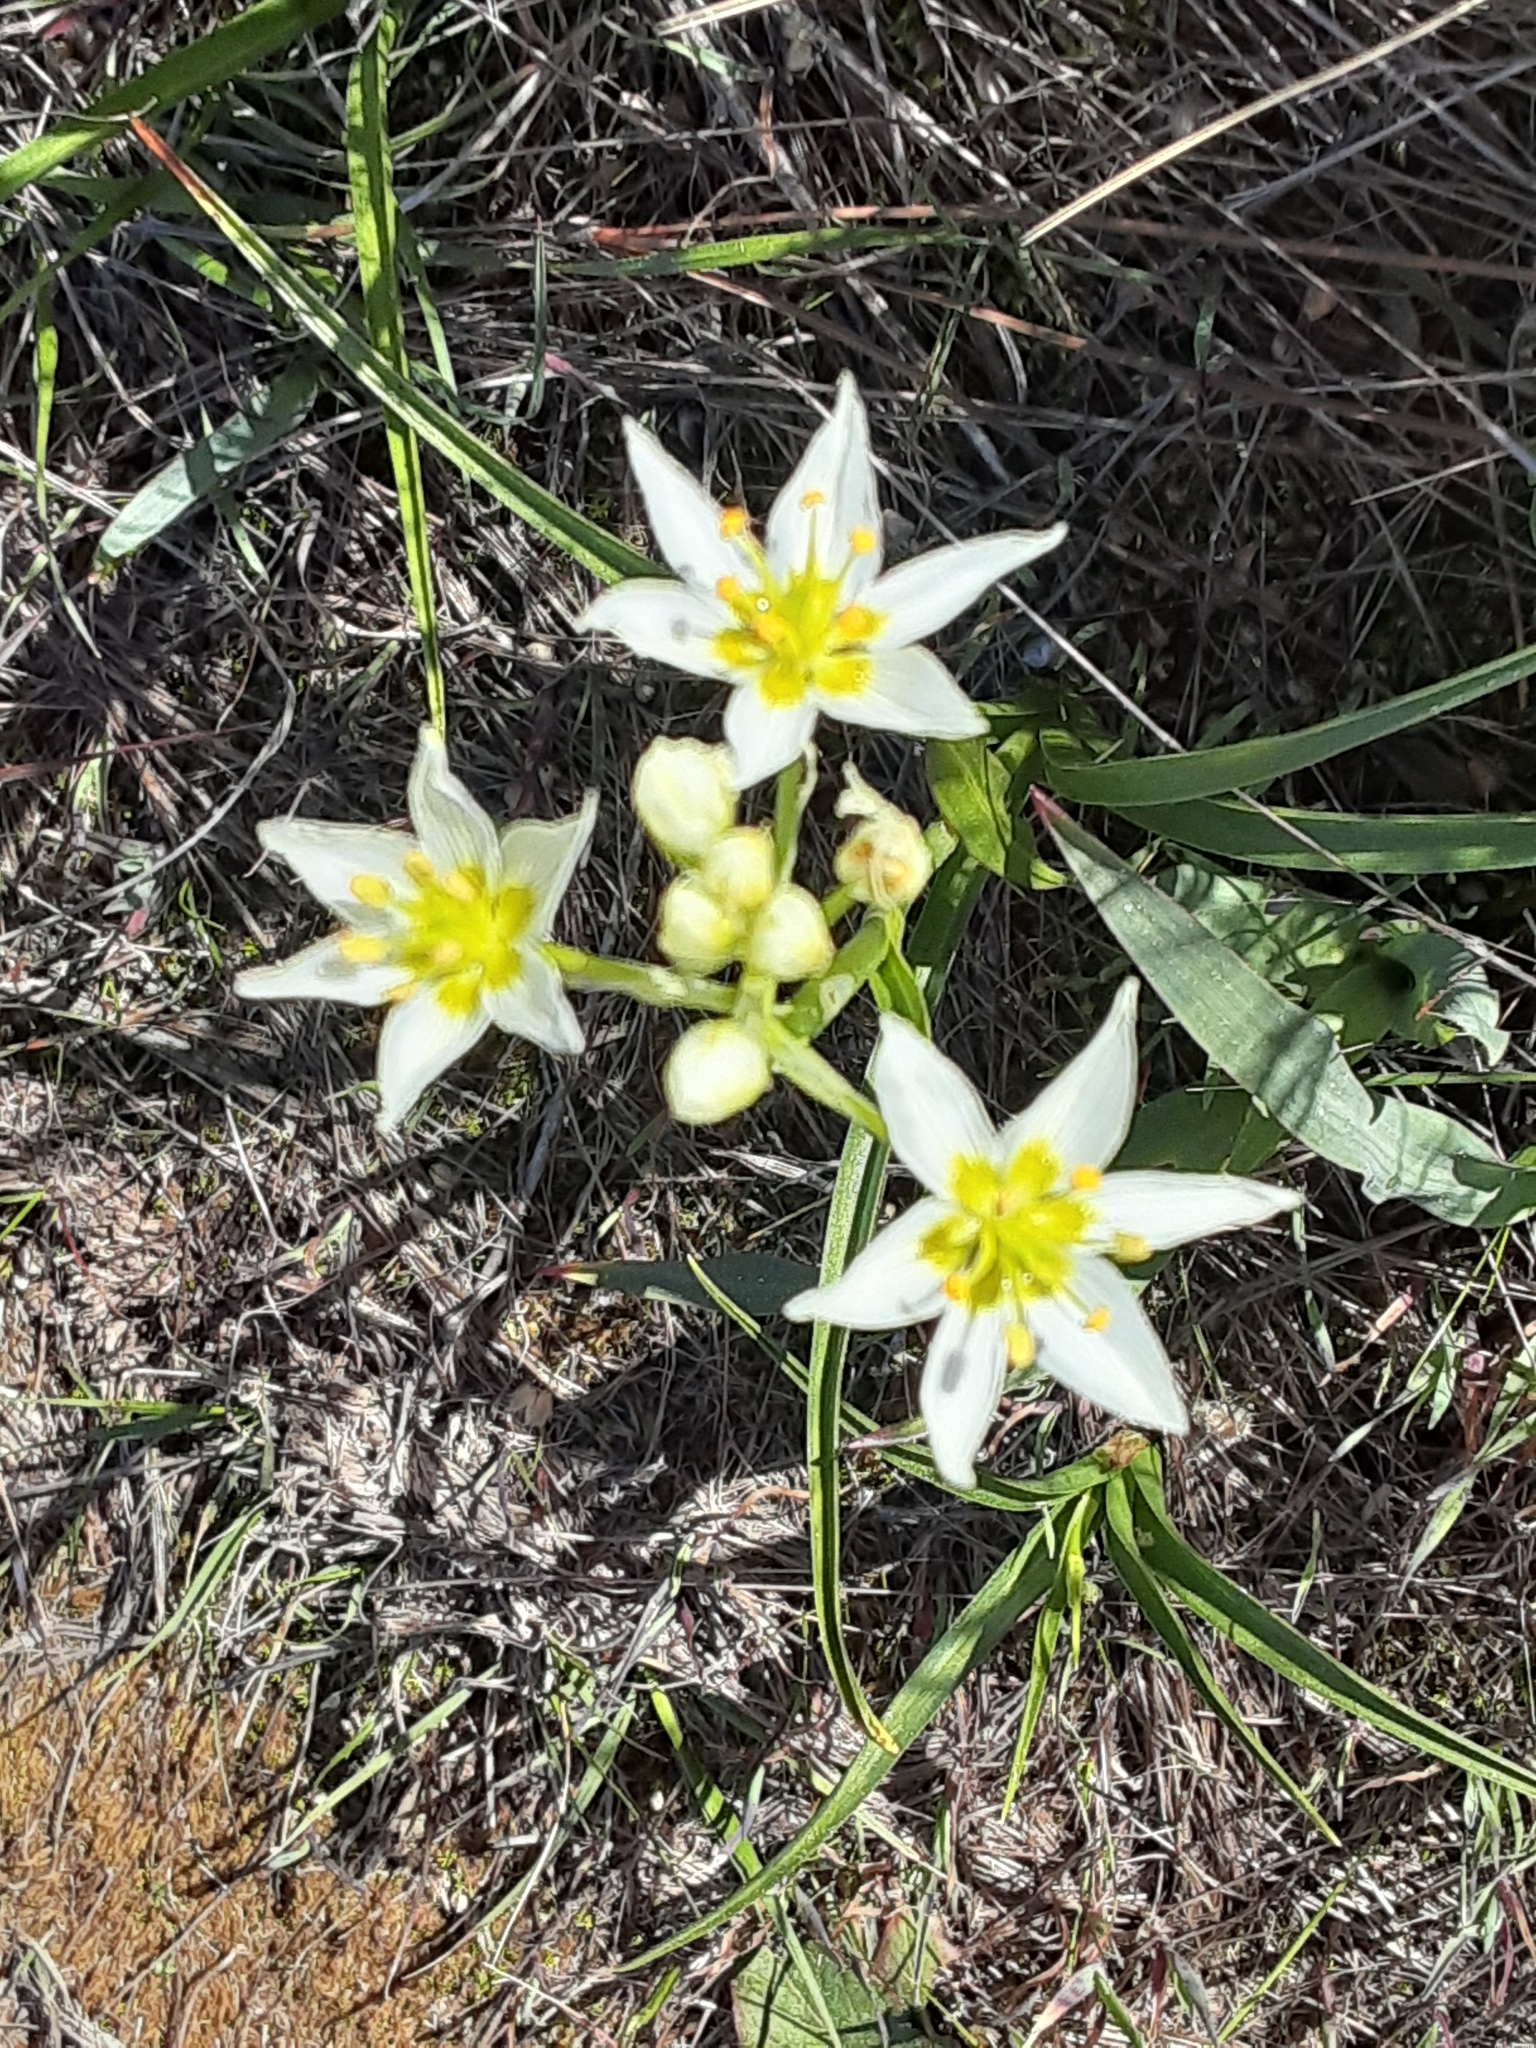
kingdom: Plantae
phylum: Tracheophyta
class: Liliopsida
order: Liliales
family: Melanthiaceae
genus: Toxicoscordion
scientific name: Toxicoscordion fremontii
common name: Fremont's death camas
